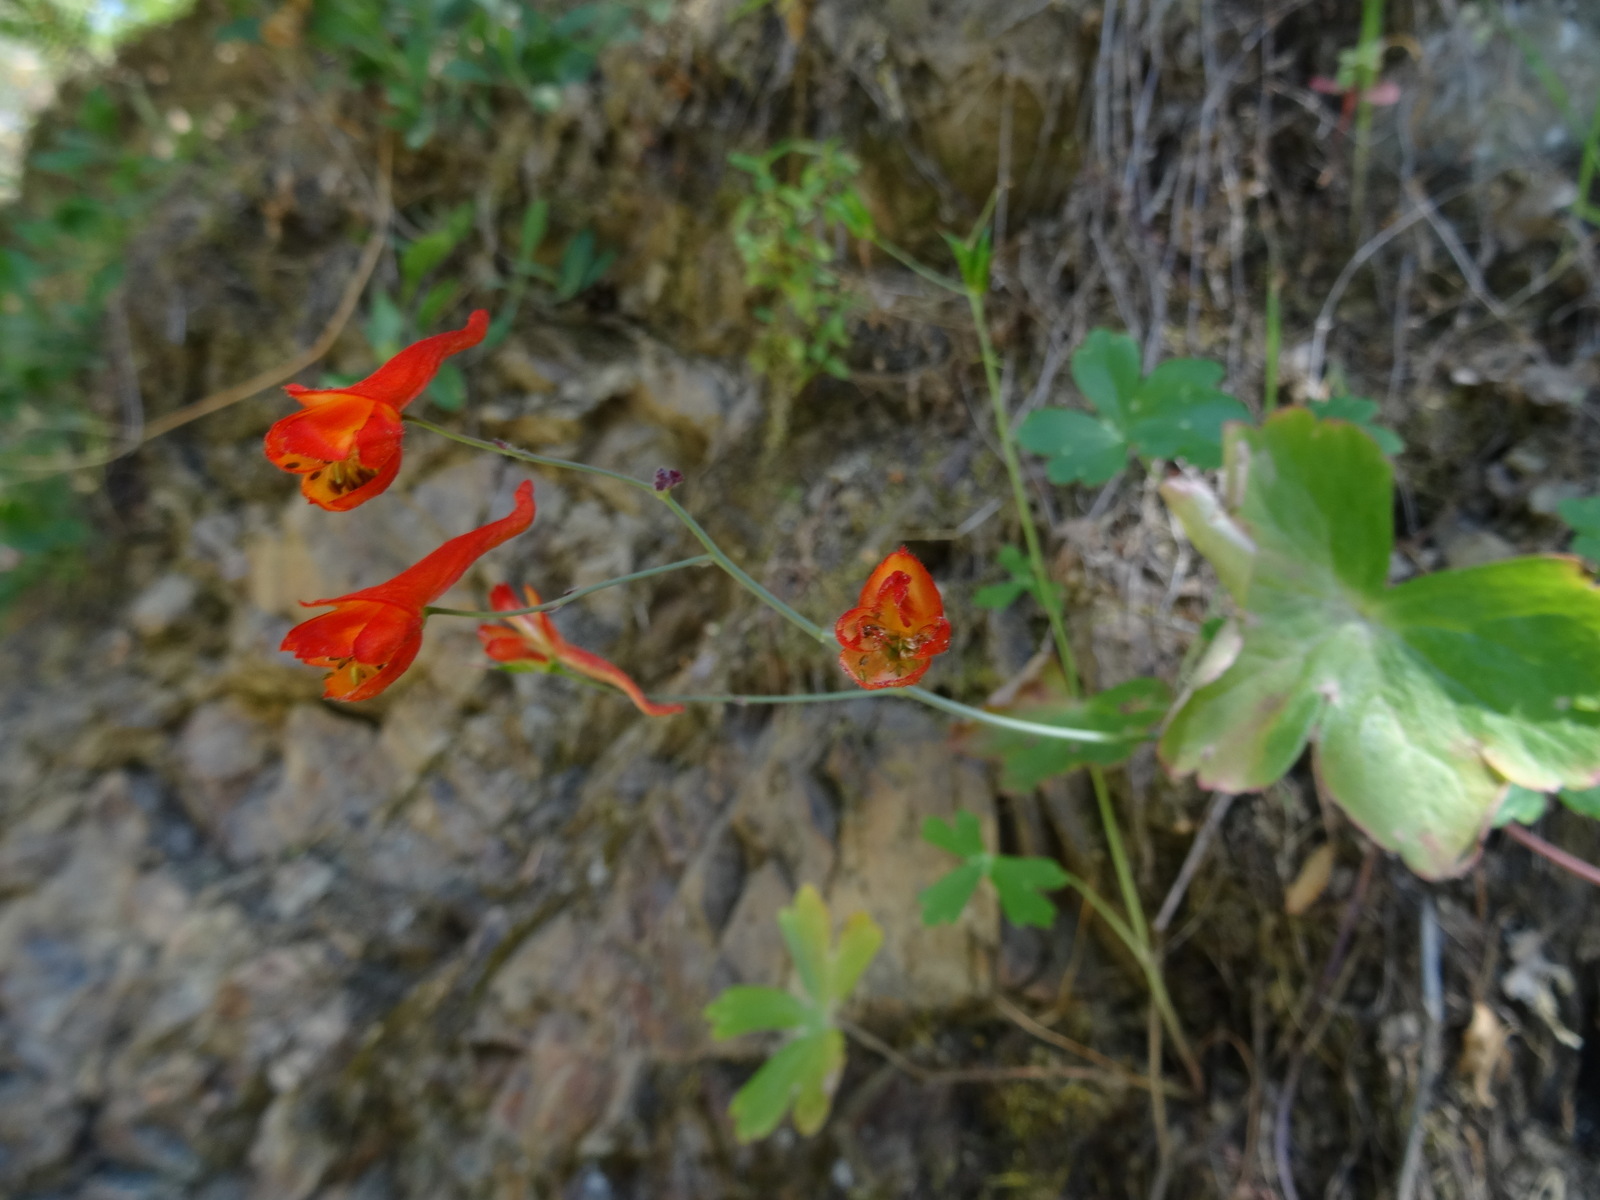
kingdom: Plantae
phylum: Tracheophyta
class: Magnoliopsida
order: Ranunculales
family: Ranunculaceae
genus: Delphinium
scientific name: Delphinium nudicaule
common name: Red larkspur
